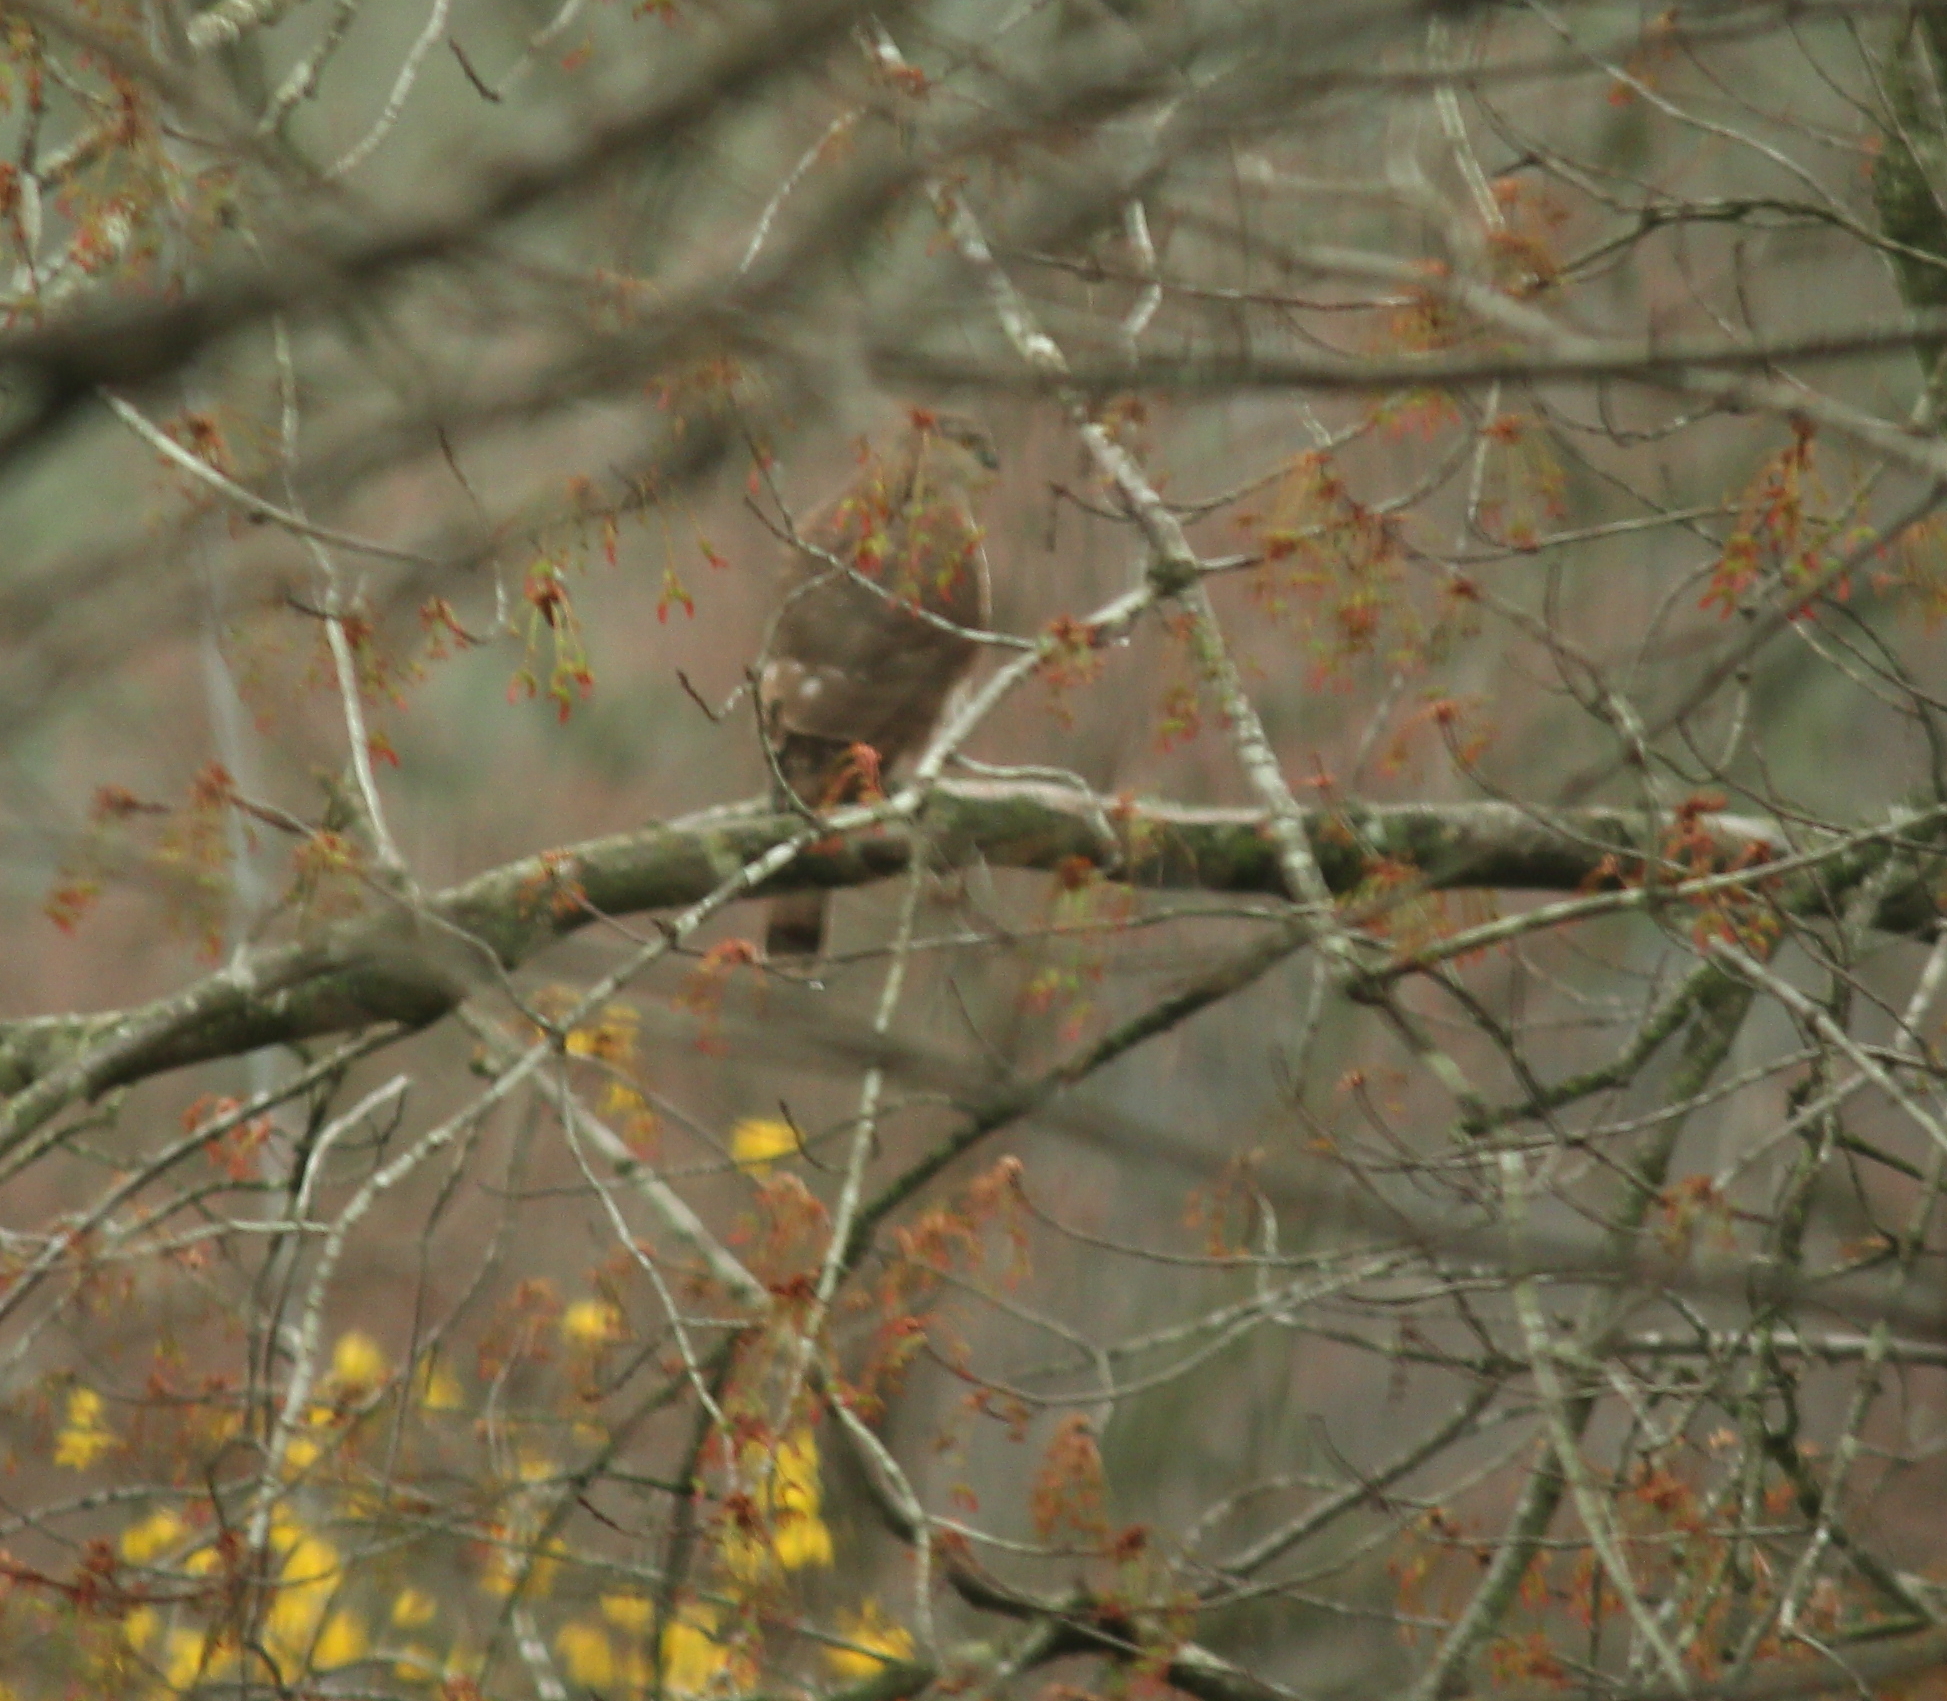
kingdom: Animalia
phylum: Chordata
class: Aves
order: Accipitriformes
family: Accipitridae
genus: Accipiter
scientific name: Accipiter striatus
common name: Sharp-shinned hawk
